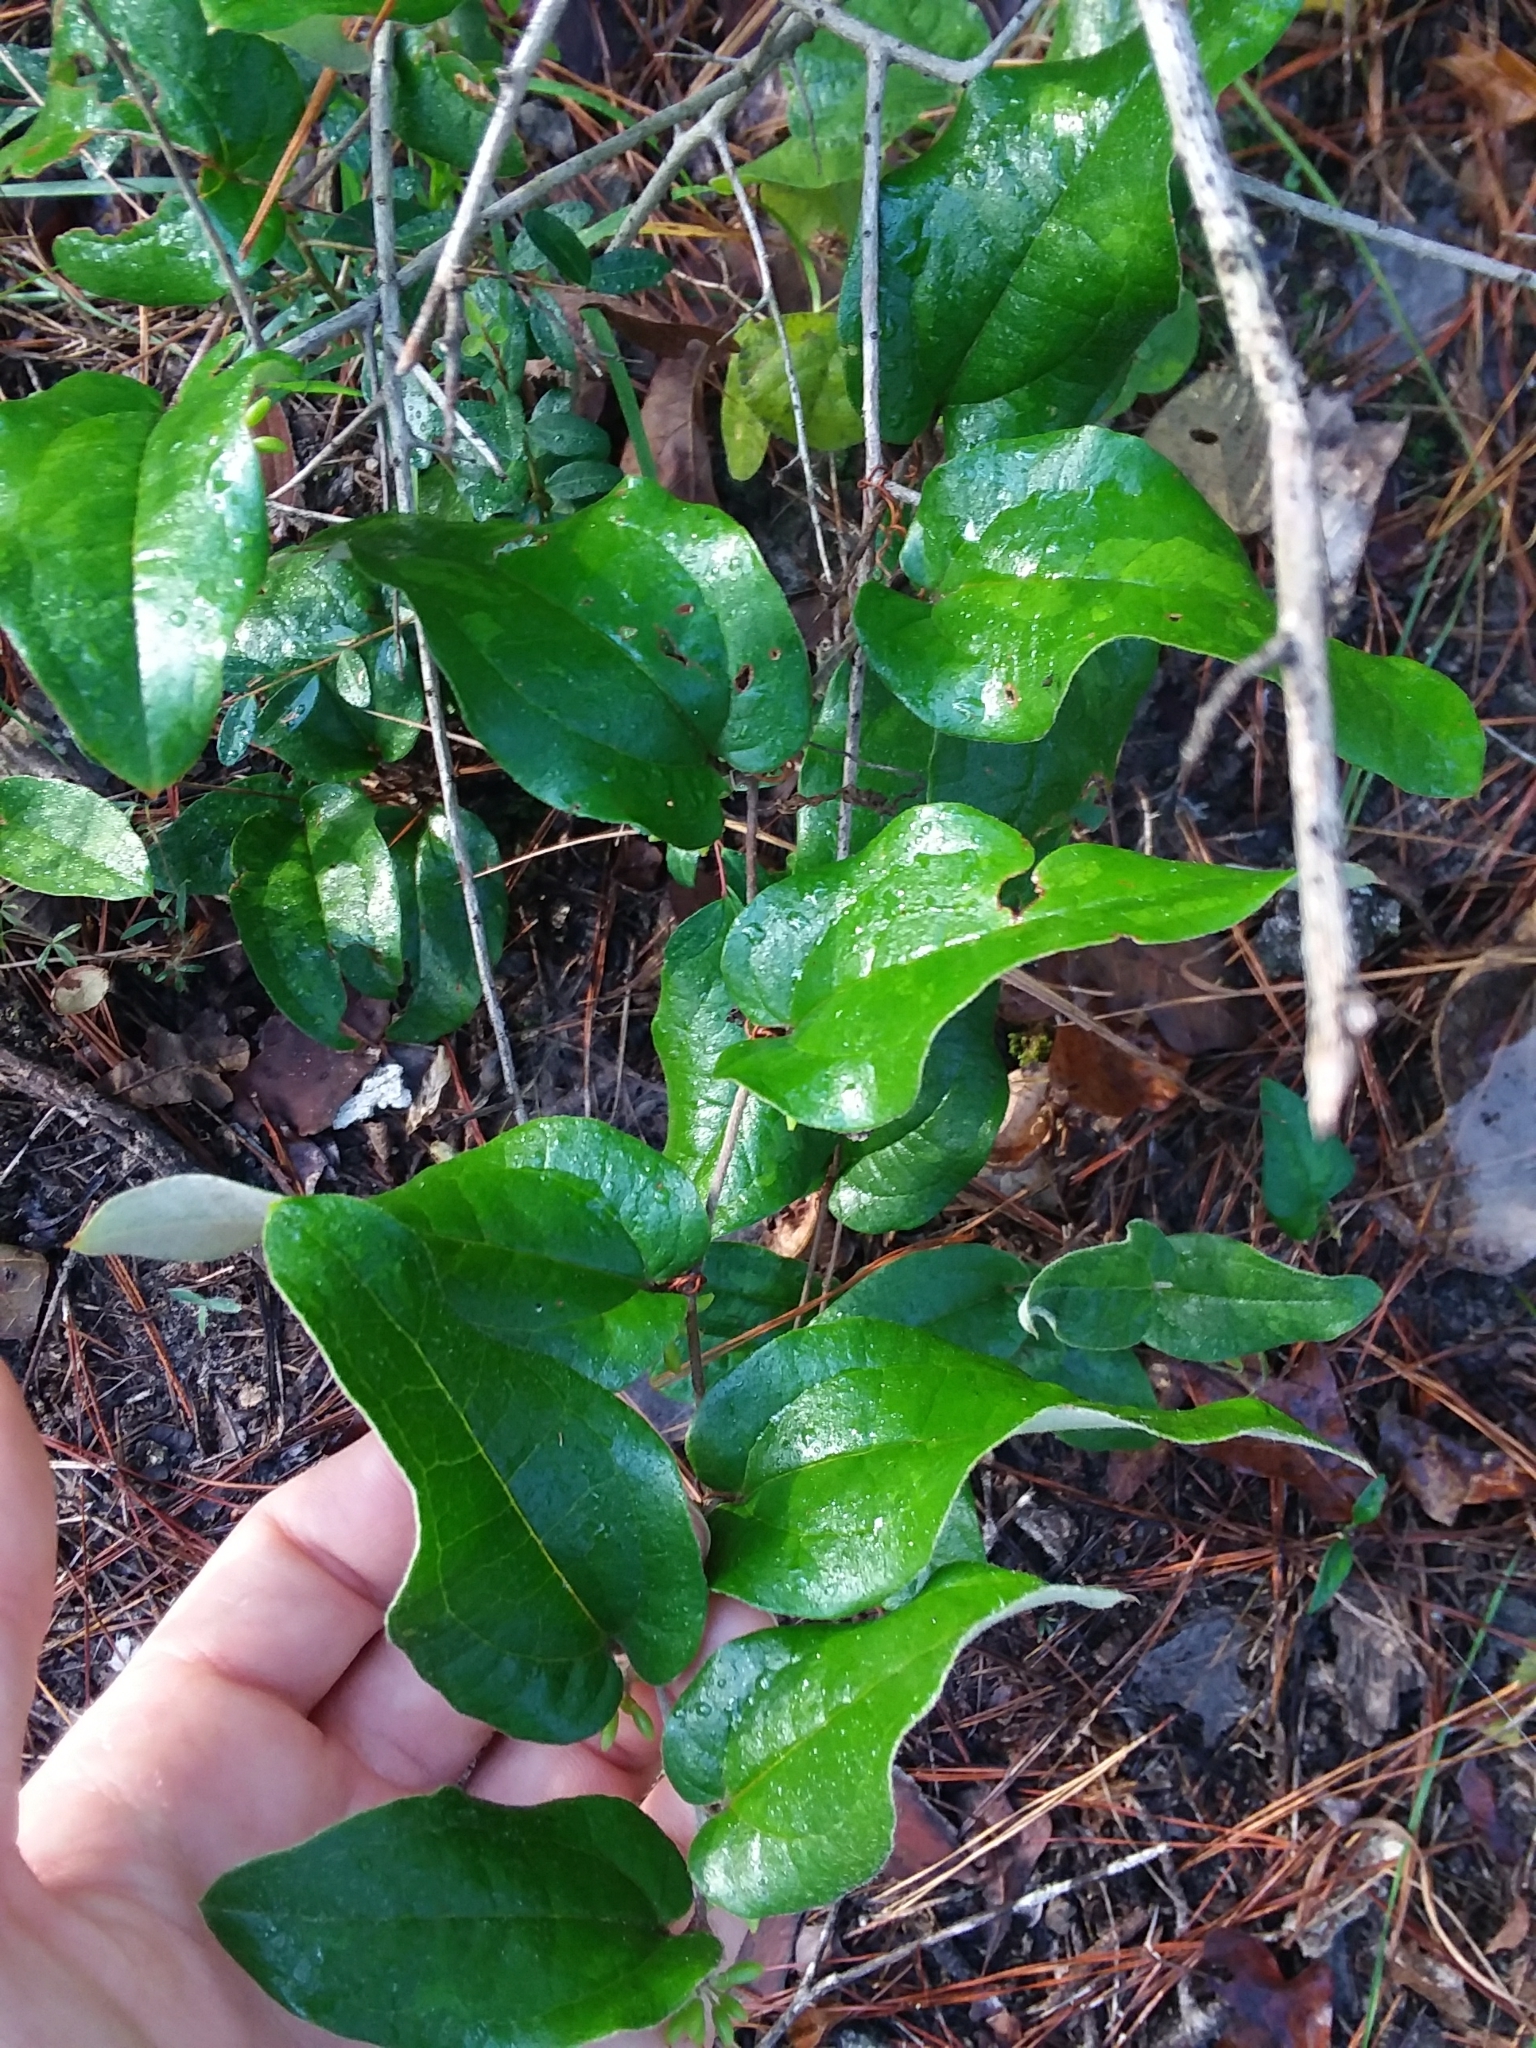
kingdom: Plantae
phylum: Tracheophyta
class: Liliopsida
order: Liliales
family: Smilacaceae
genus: Smilax
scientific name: Smilax pumila
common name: Sarsaparilla-vine
